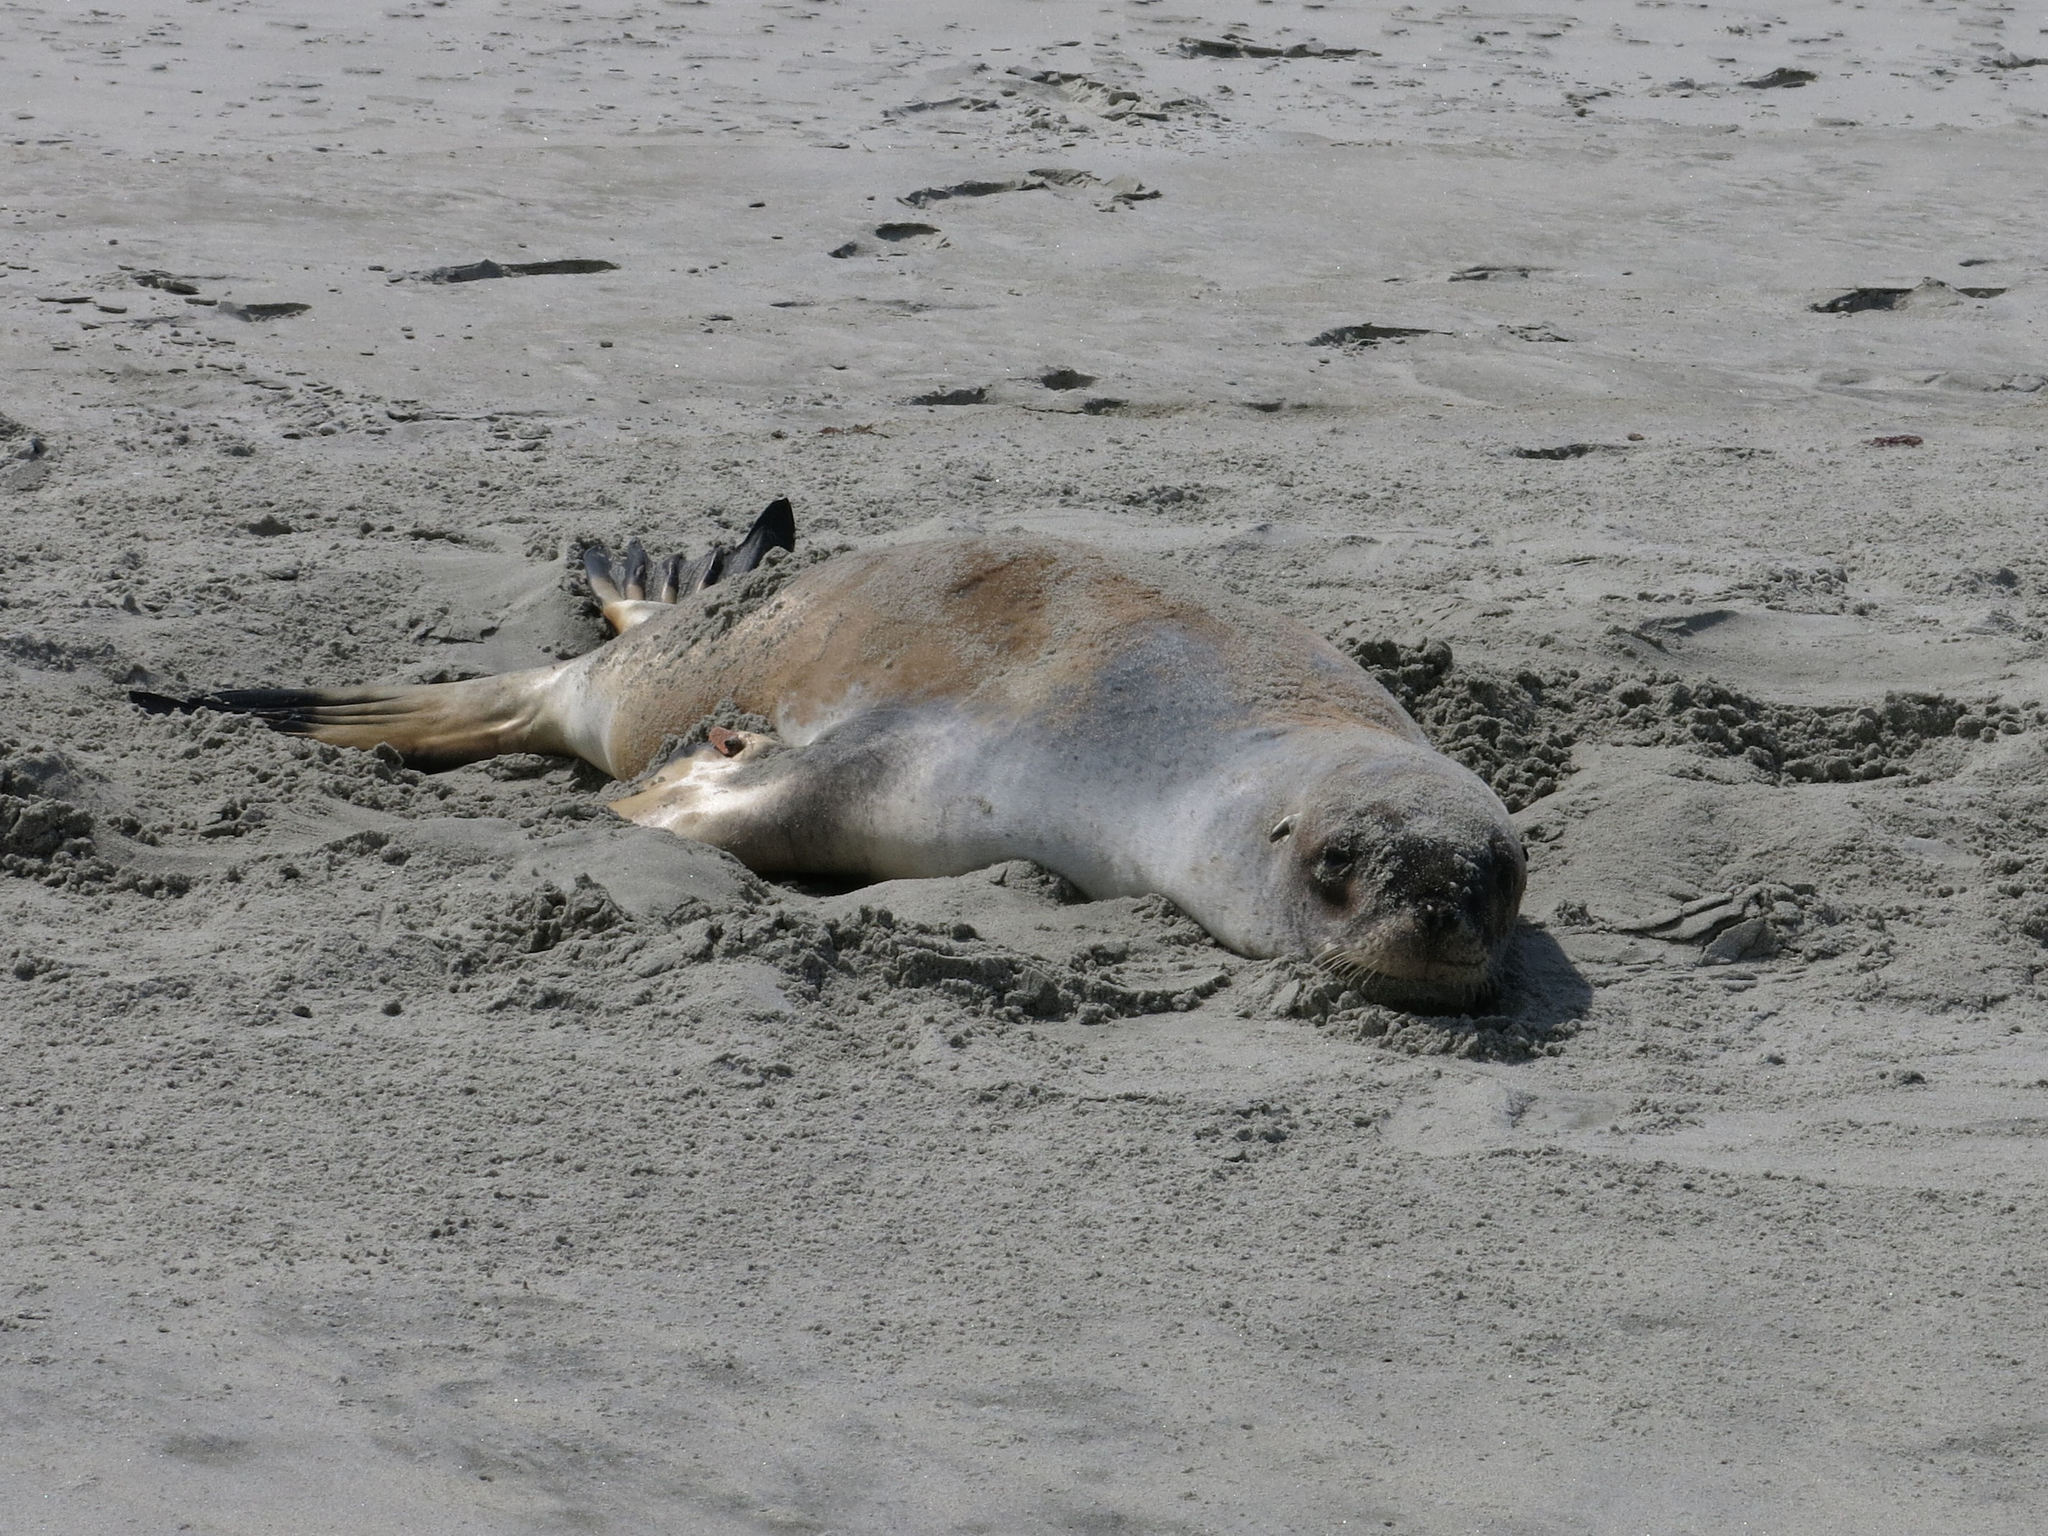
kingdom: Animalia
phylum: Chordata
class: Mammalia
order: Carnivora
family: Otariidae
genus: Phocarctos
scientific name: Phocarctos hookeri
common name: New zealand sea lion
